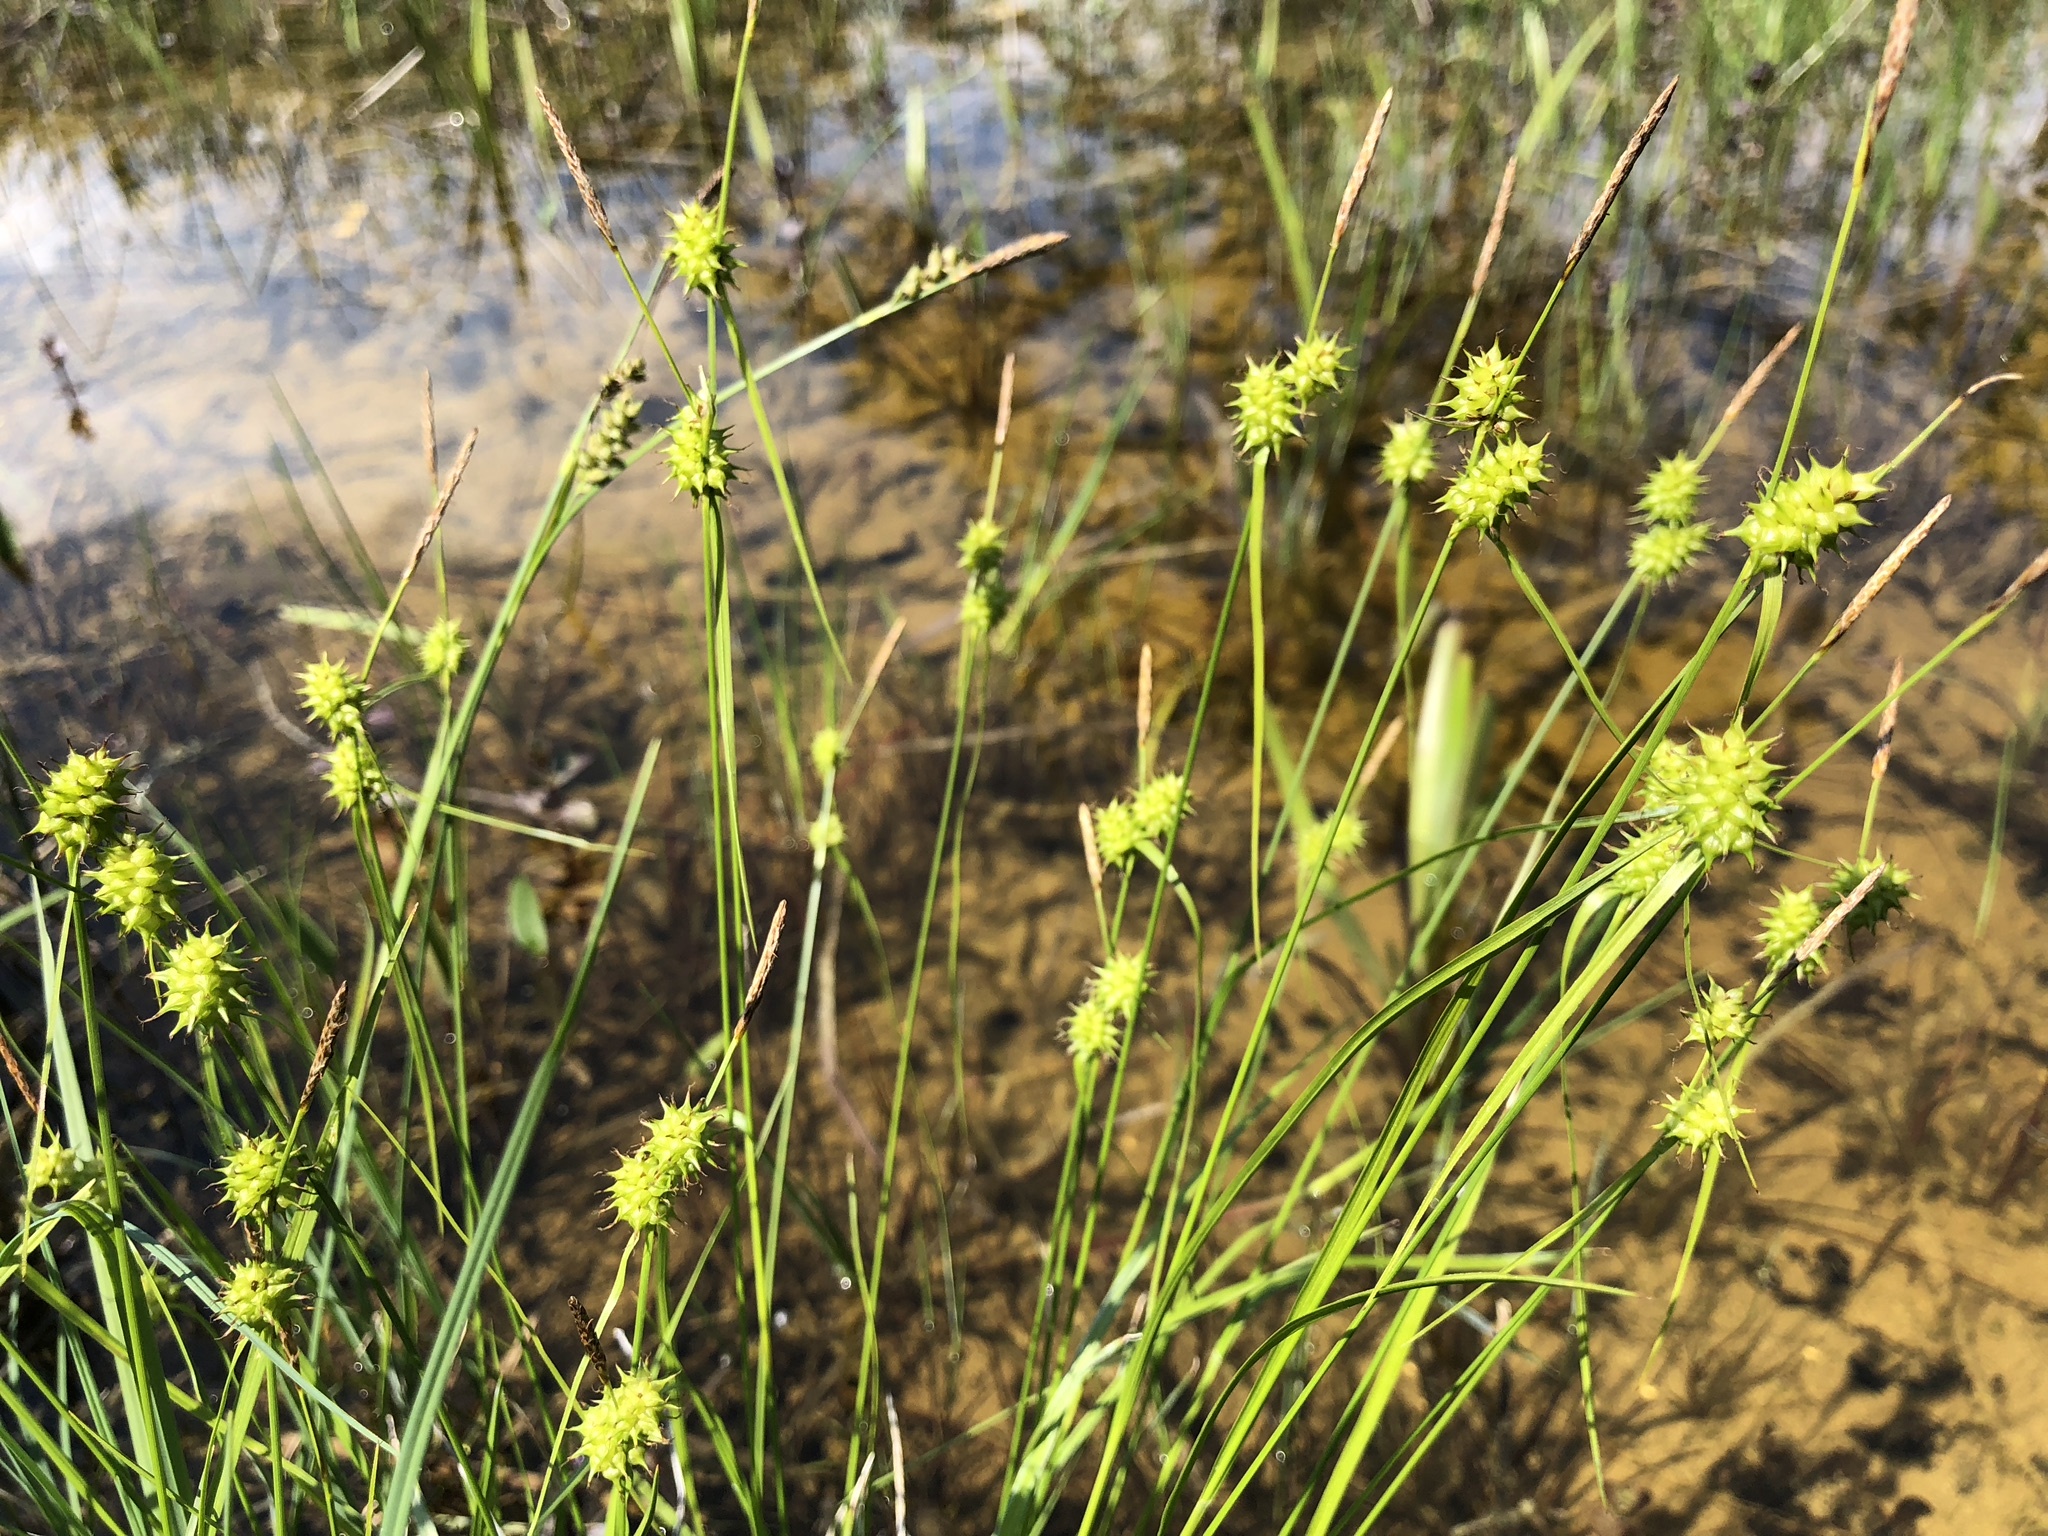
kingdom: Plantae
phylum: Tracheophyta
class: Liliopsida
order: Poales
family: Cyperaceae
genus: Carex
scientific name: Carex flava
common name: Large yellow-sedge
